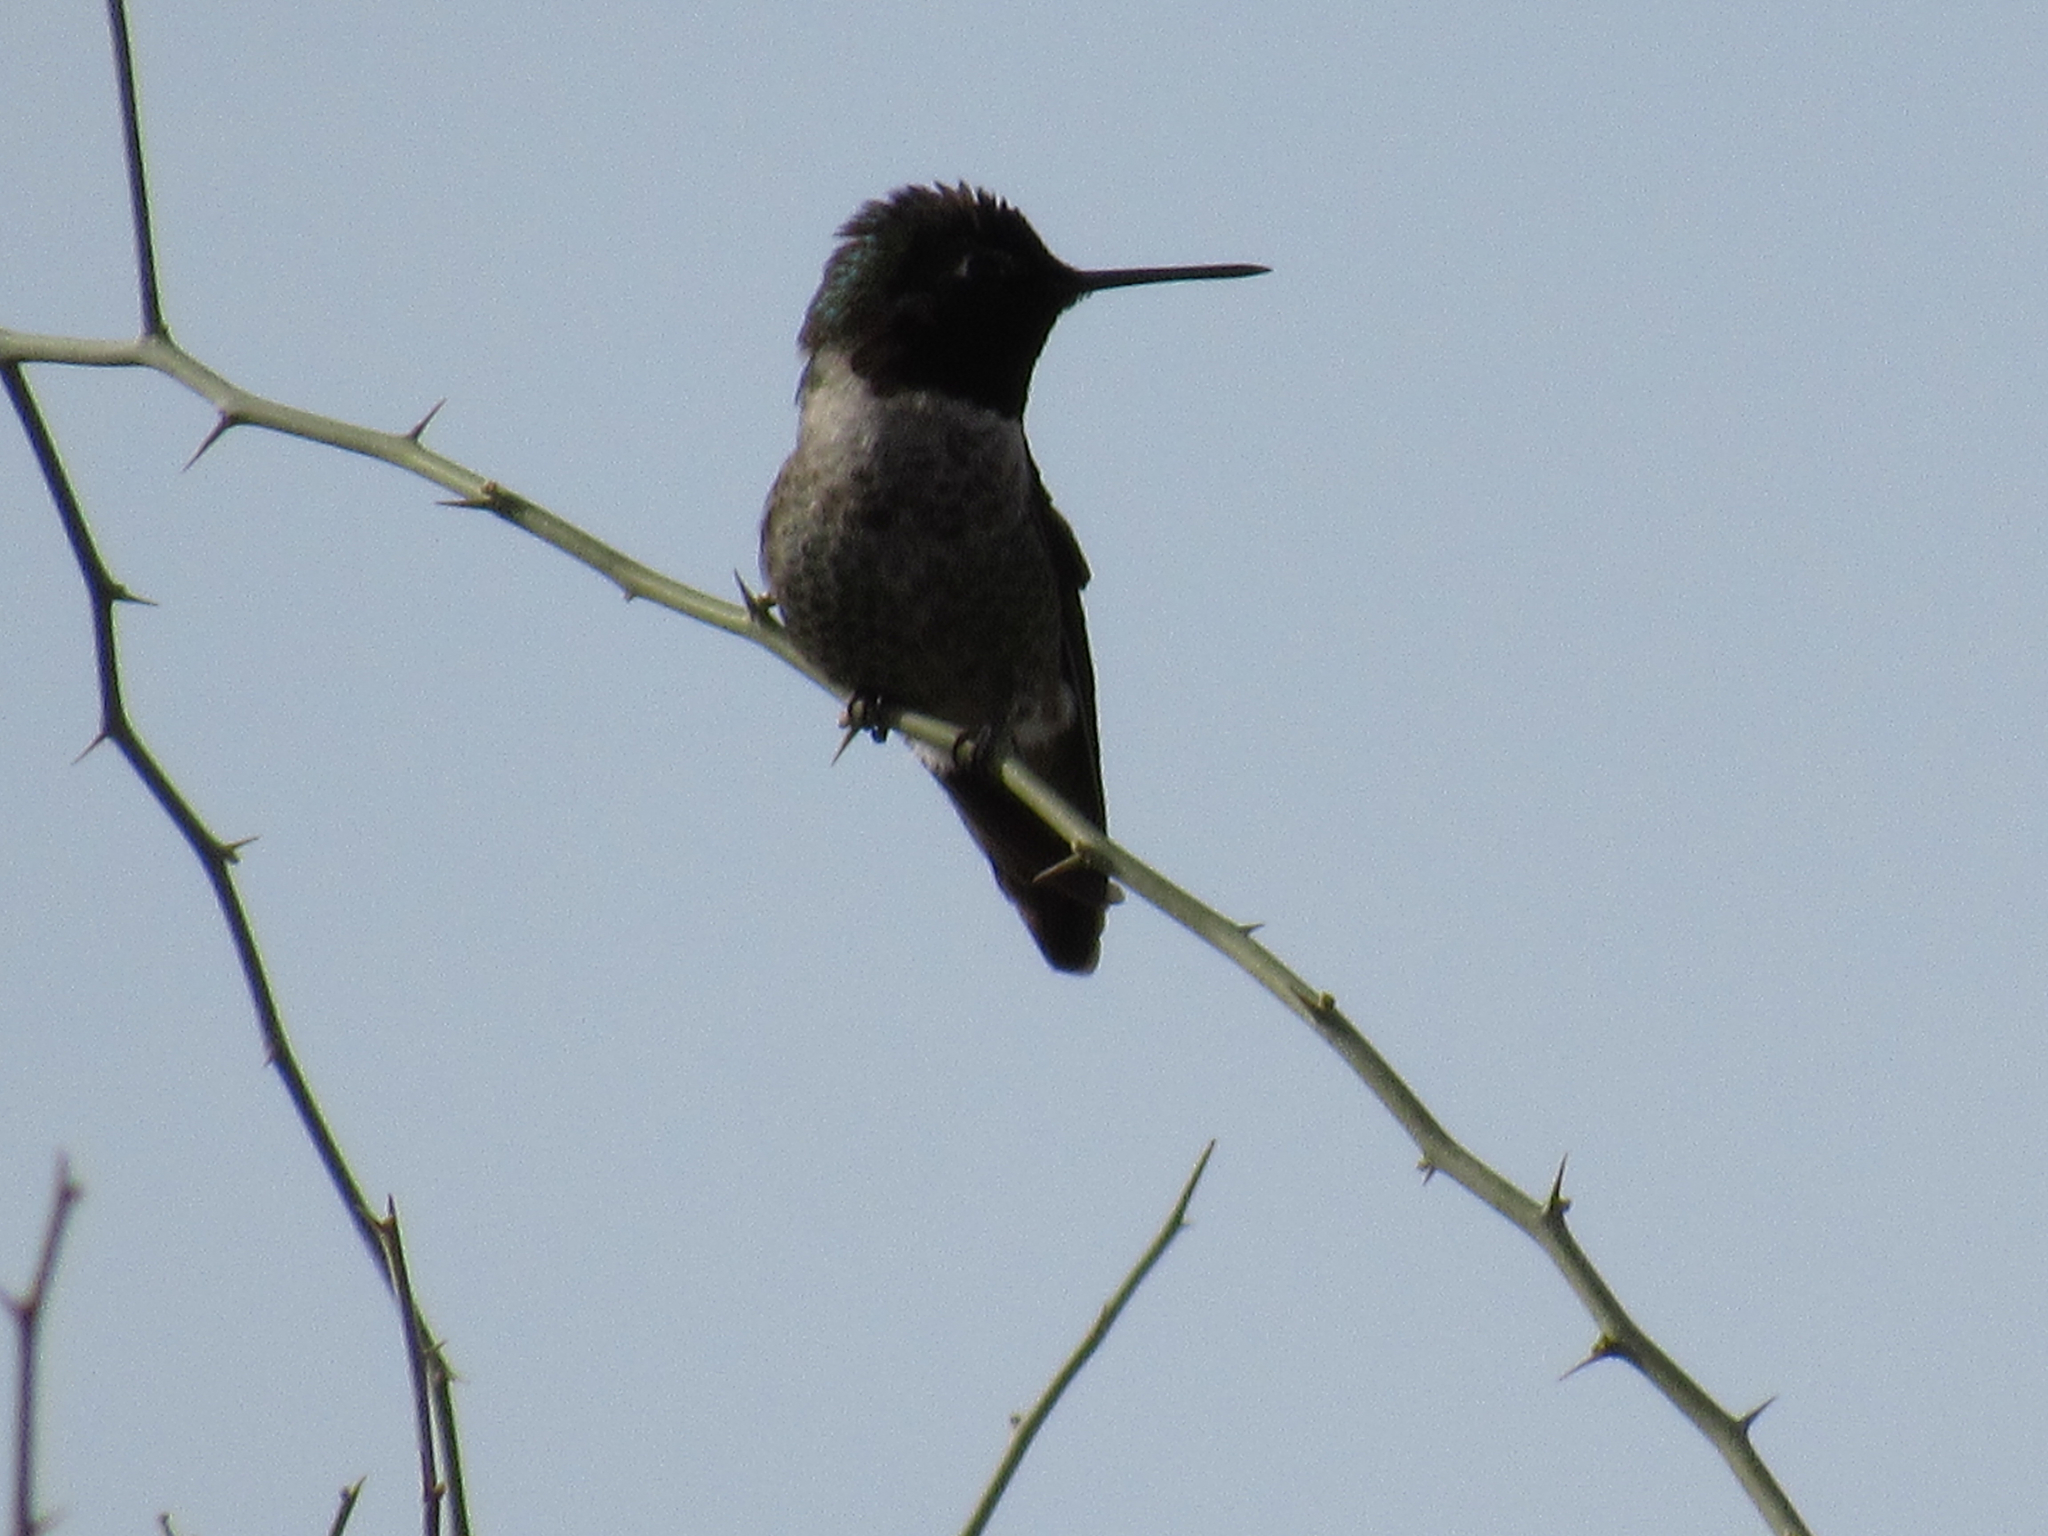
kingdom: Animalia
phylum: Chordata
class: Aves
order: Apodiformes
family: Trochilidae
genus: Calypte
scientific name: Calypte anna
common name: Anna's hummingbird
